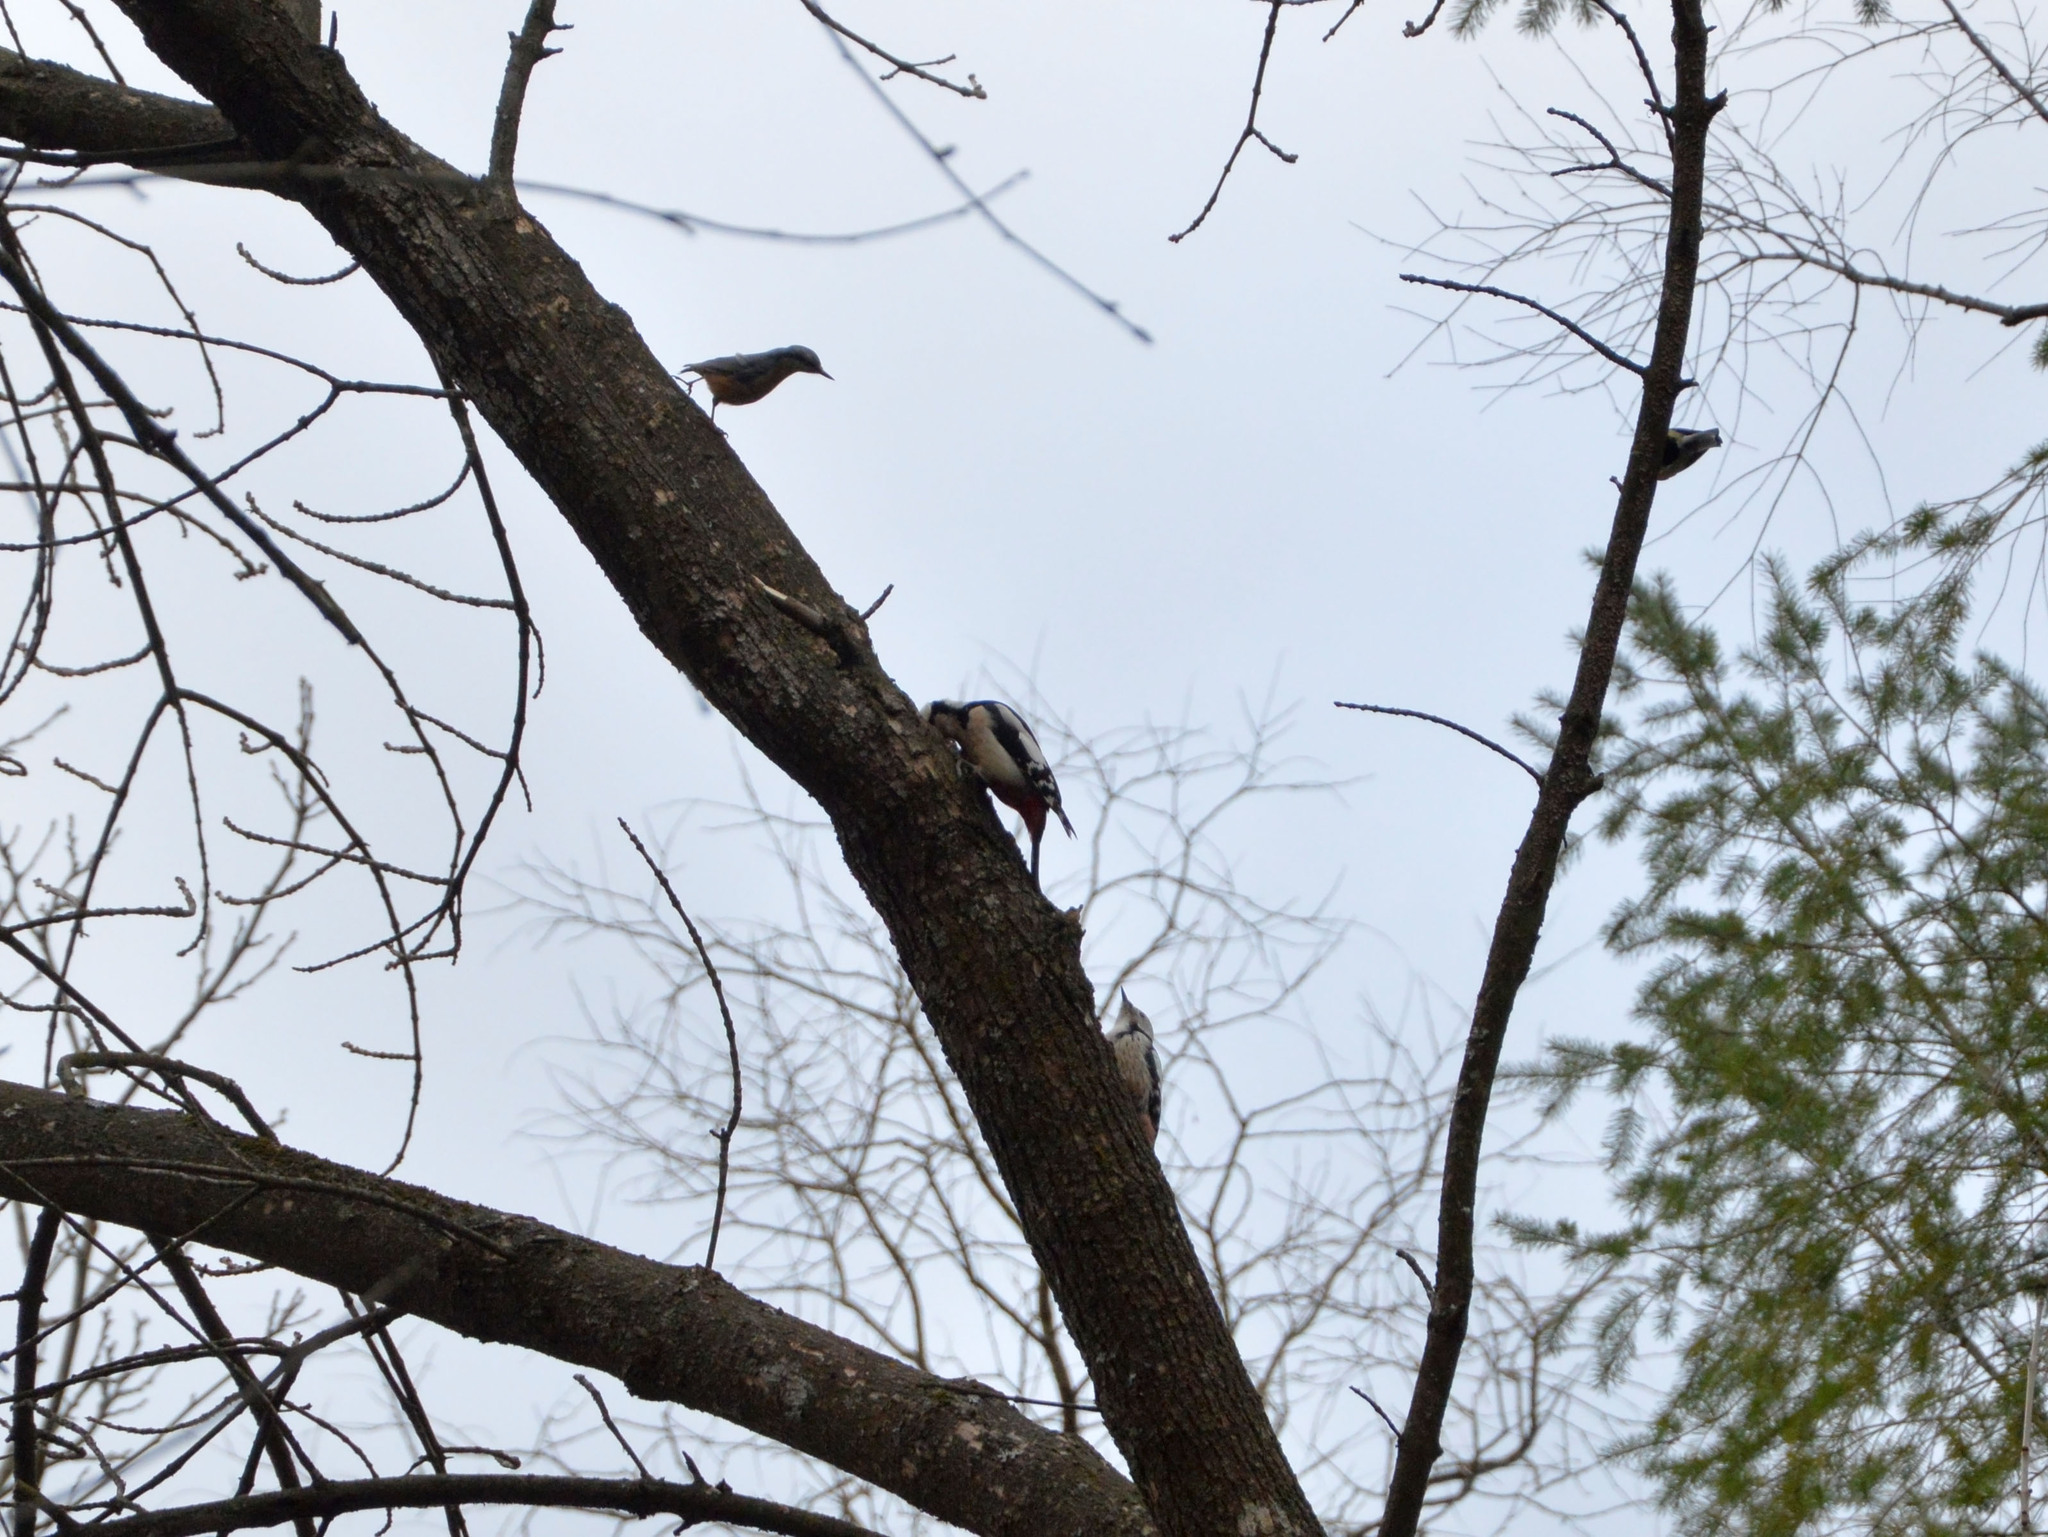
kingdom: Animalia
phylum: Chordata
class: Aves
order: Passeriformes
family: Sittidae
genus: Sitta
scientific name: Sitta europaea
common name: Eurasian nuthatch
